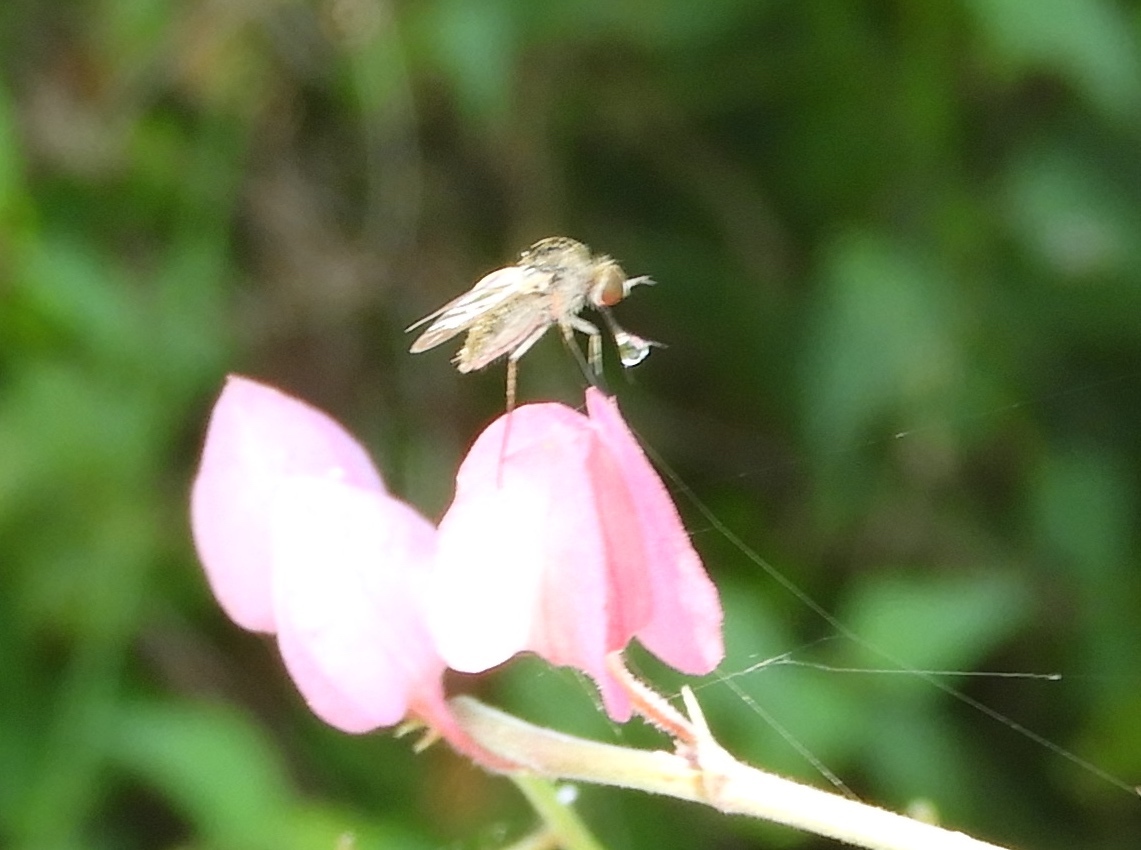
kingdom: Animalia
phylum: Arthropoda
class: Insecta
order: Diptera
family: Bombyliidae
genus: Geron
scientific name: Geron
